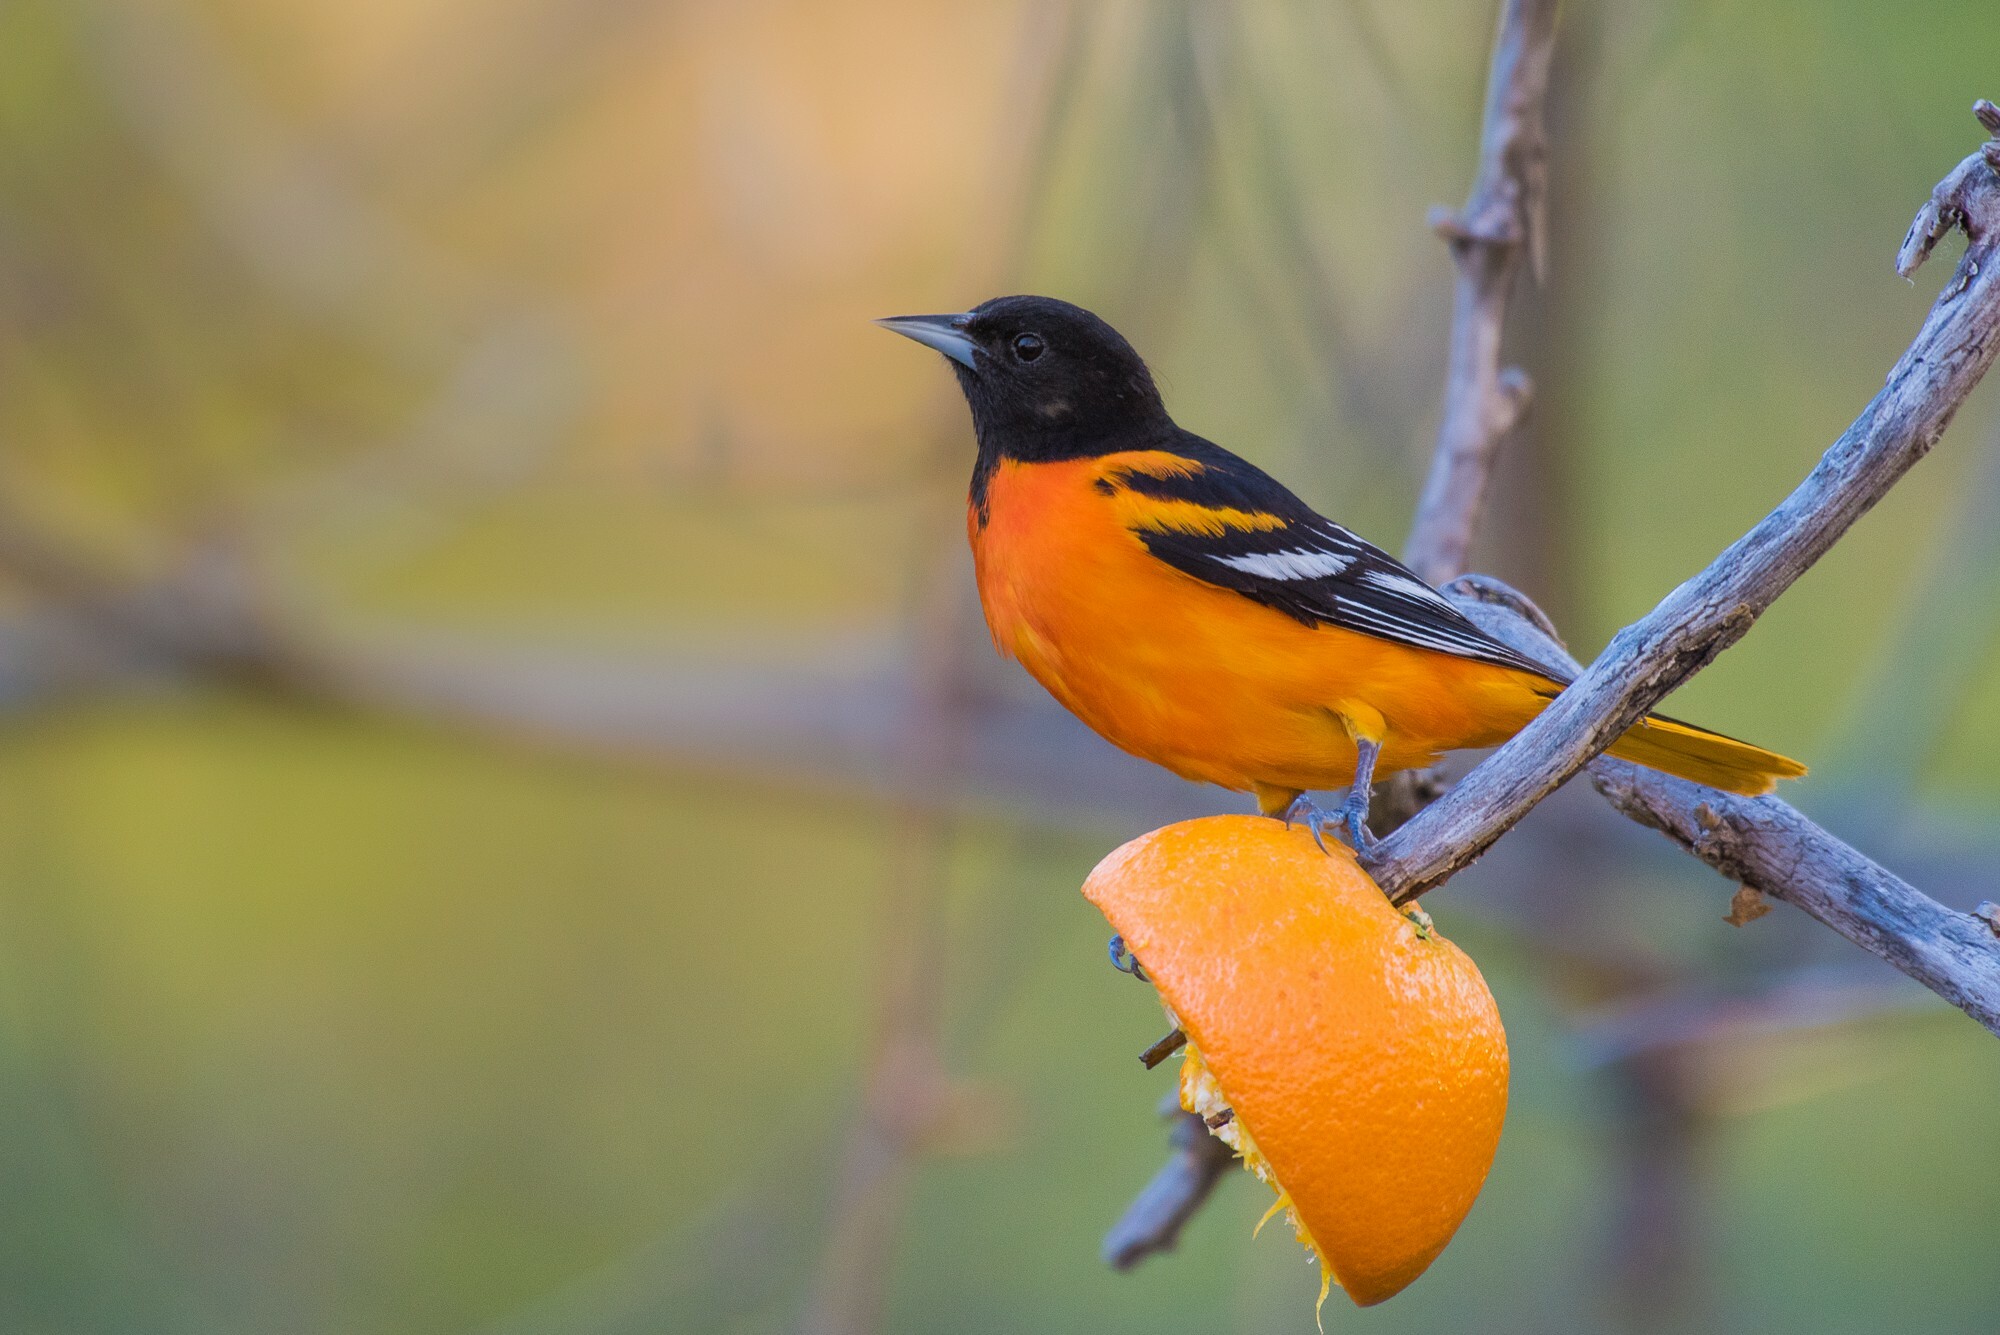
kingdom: Animalia
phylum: Chordata
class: Aves
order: Passeriformes
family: Icteridae
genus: Icterus
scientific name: Icterus galbula
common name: Baltimore oriole
